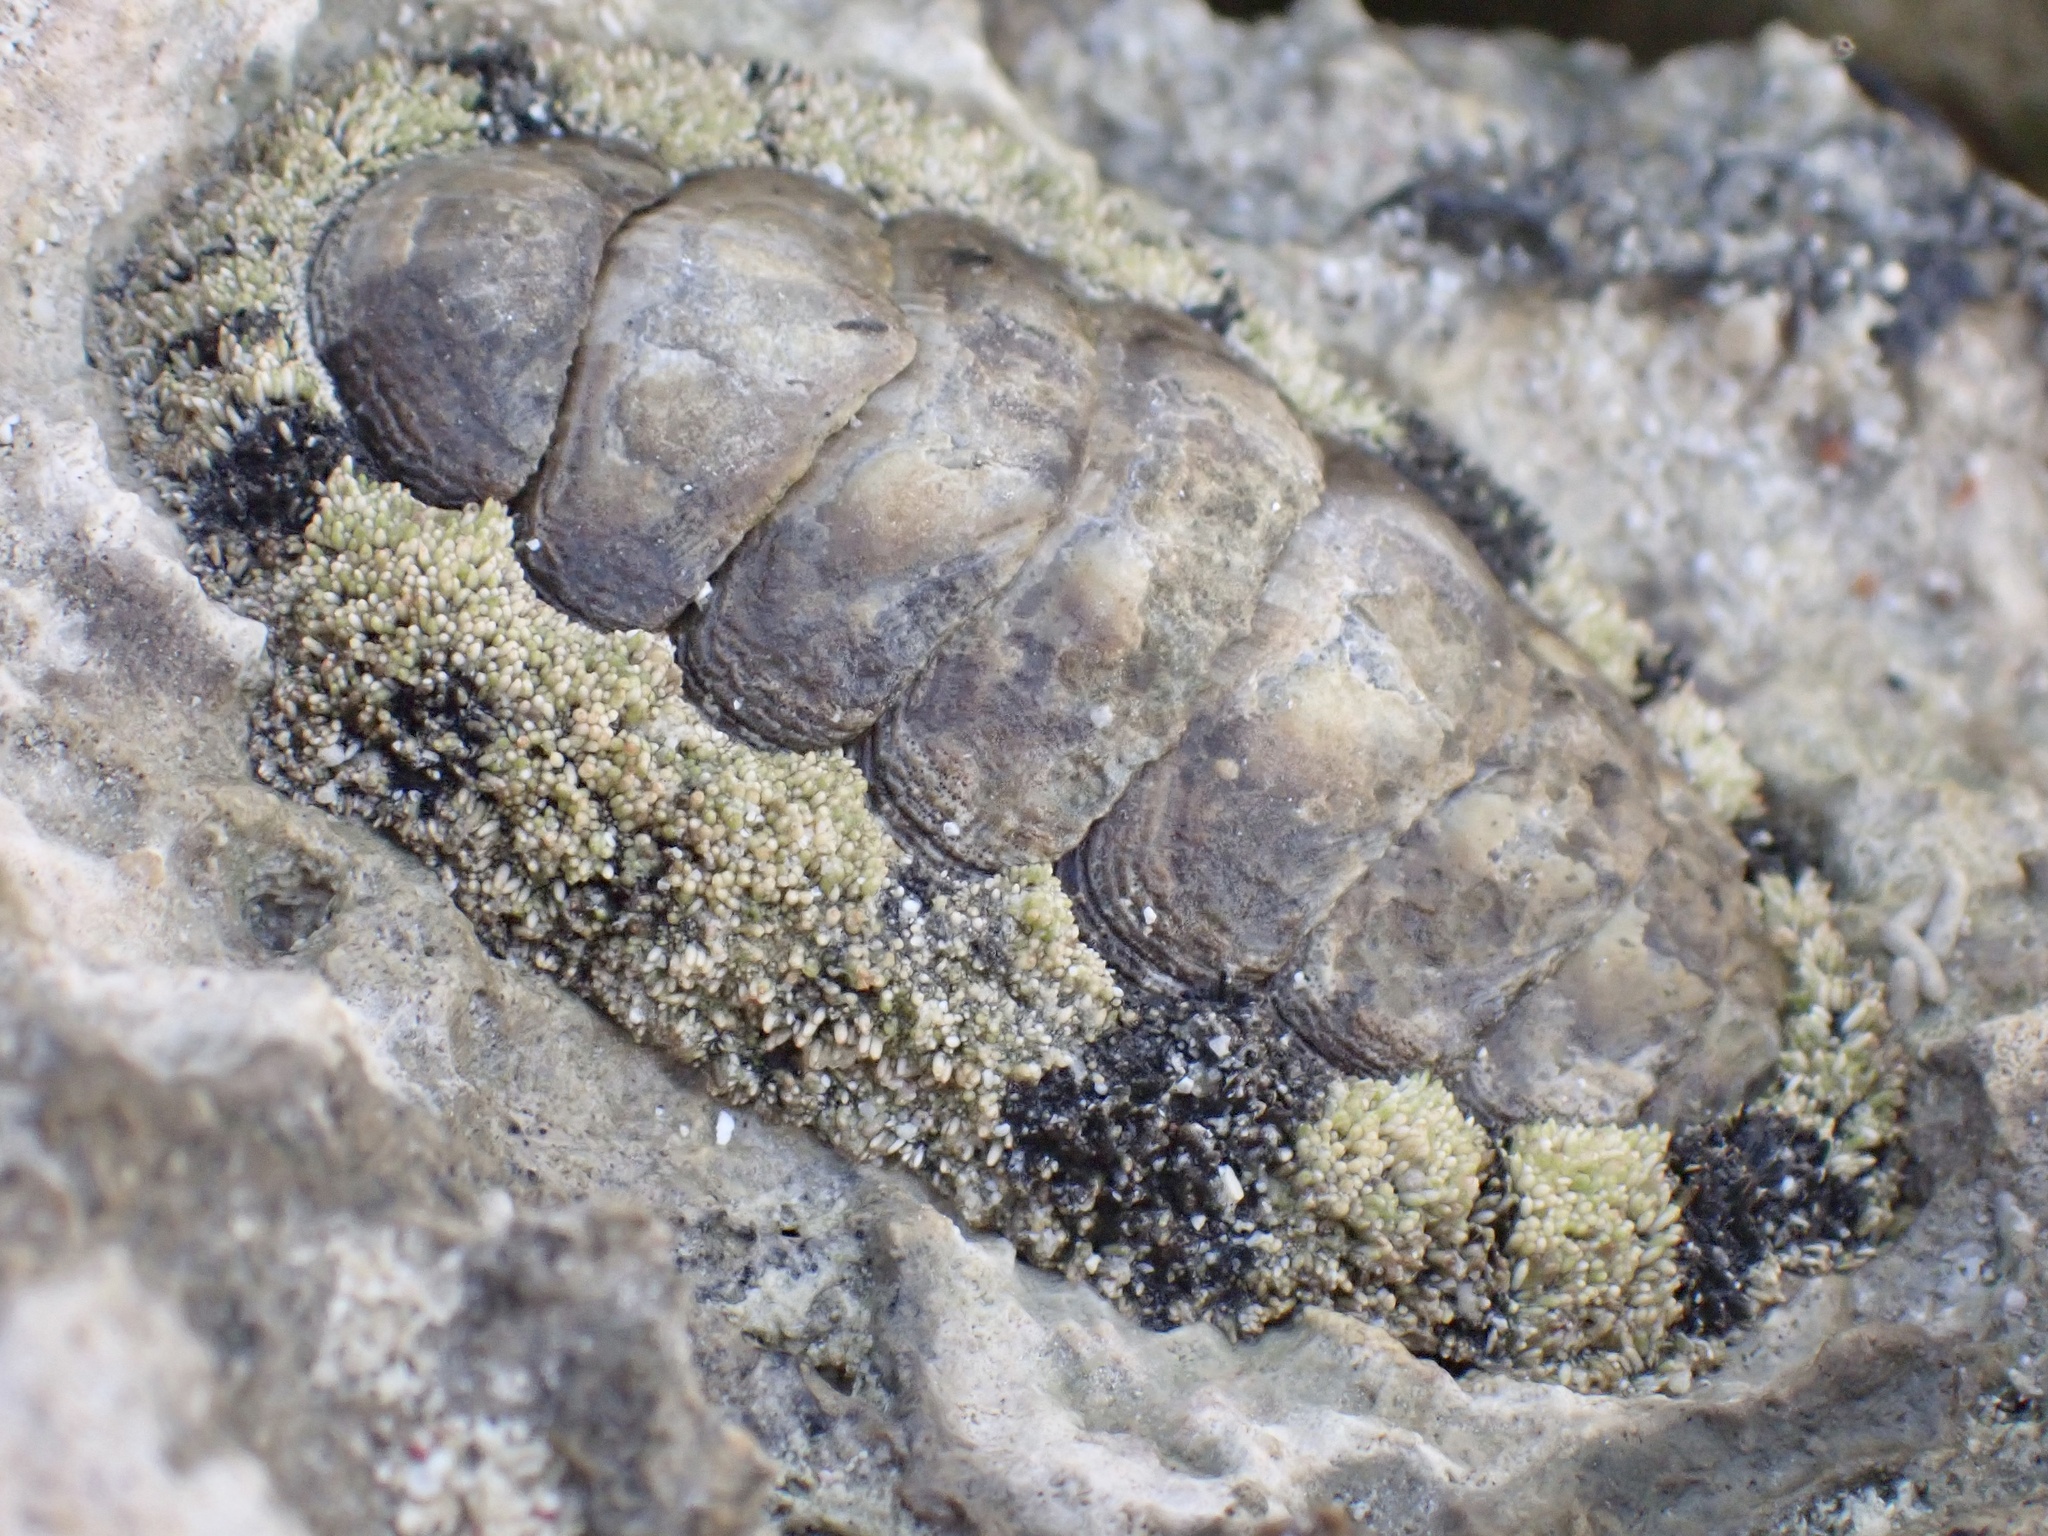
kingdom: Animalia
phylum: Mollusca
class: Polyplacophora
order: Chitonida
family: Chitonidae
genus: Acanthopleura
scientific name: Acanthopleura vaillantii
